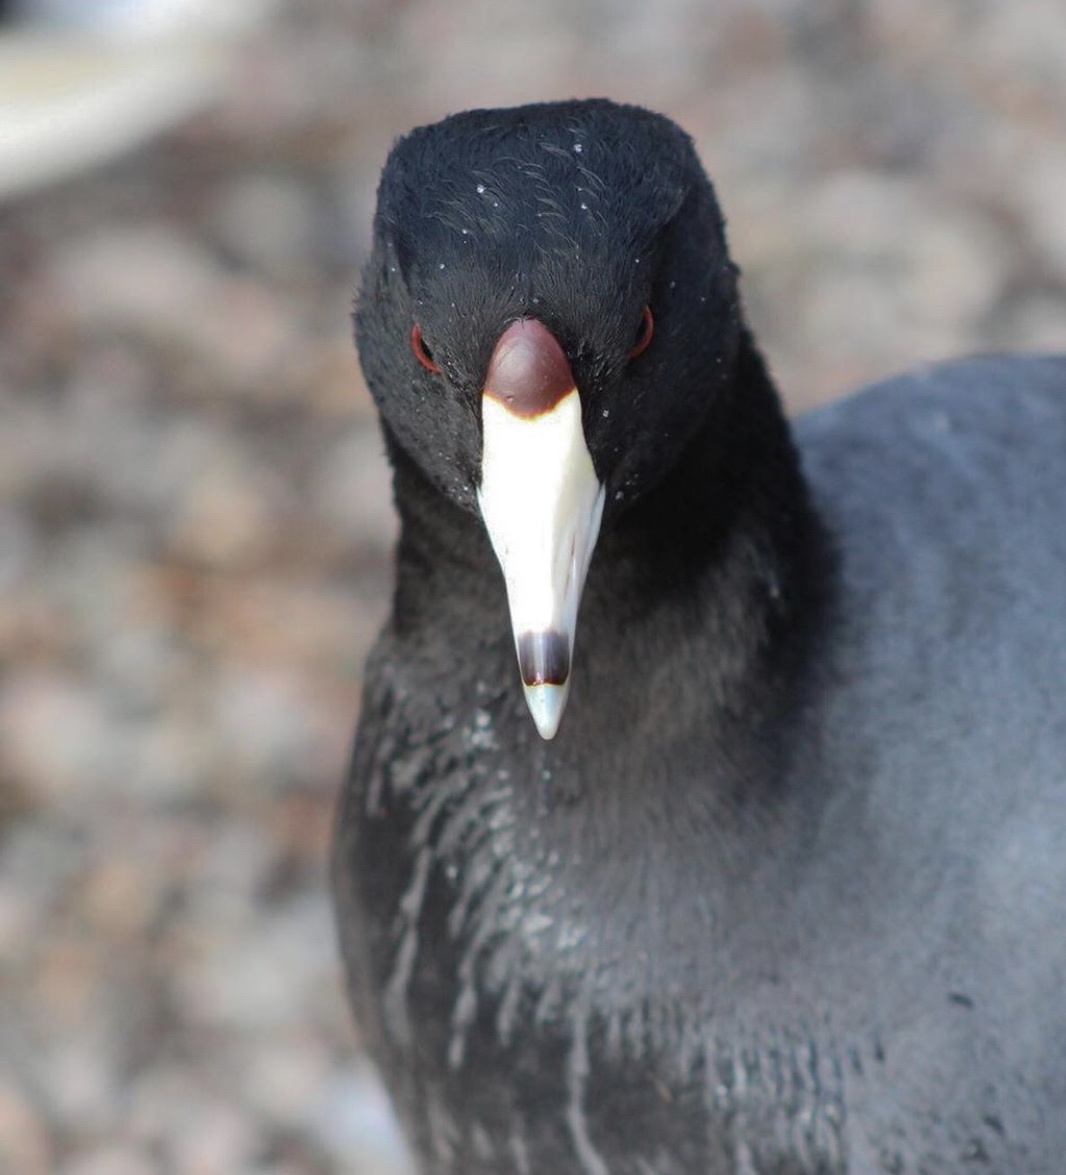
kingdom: Animalia
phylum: Chordata
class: Aves
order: Gruiformes
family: Rallidae
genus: Fulica
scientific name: Fulica americana
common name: American coot
